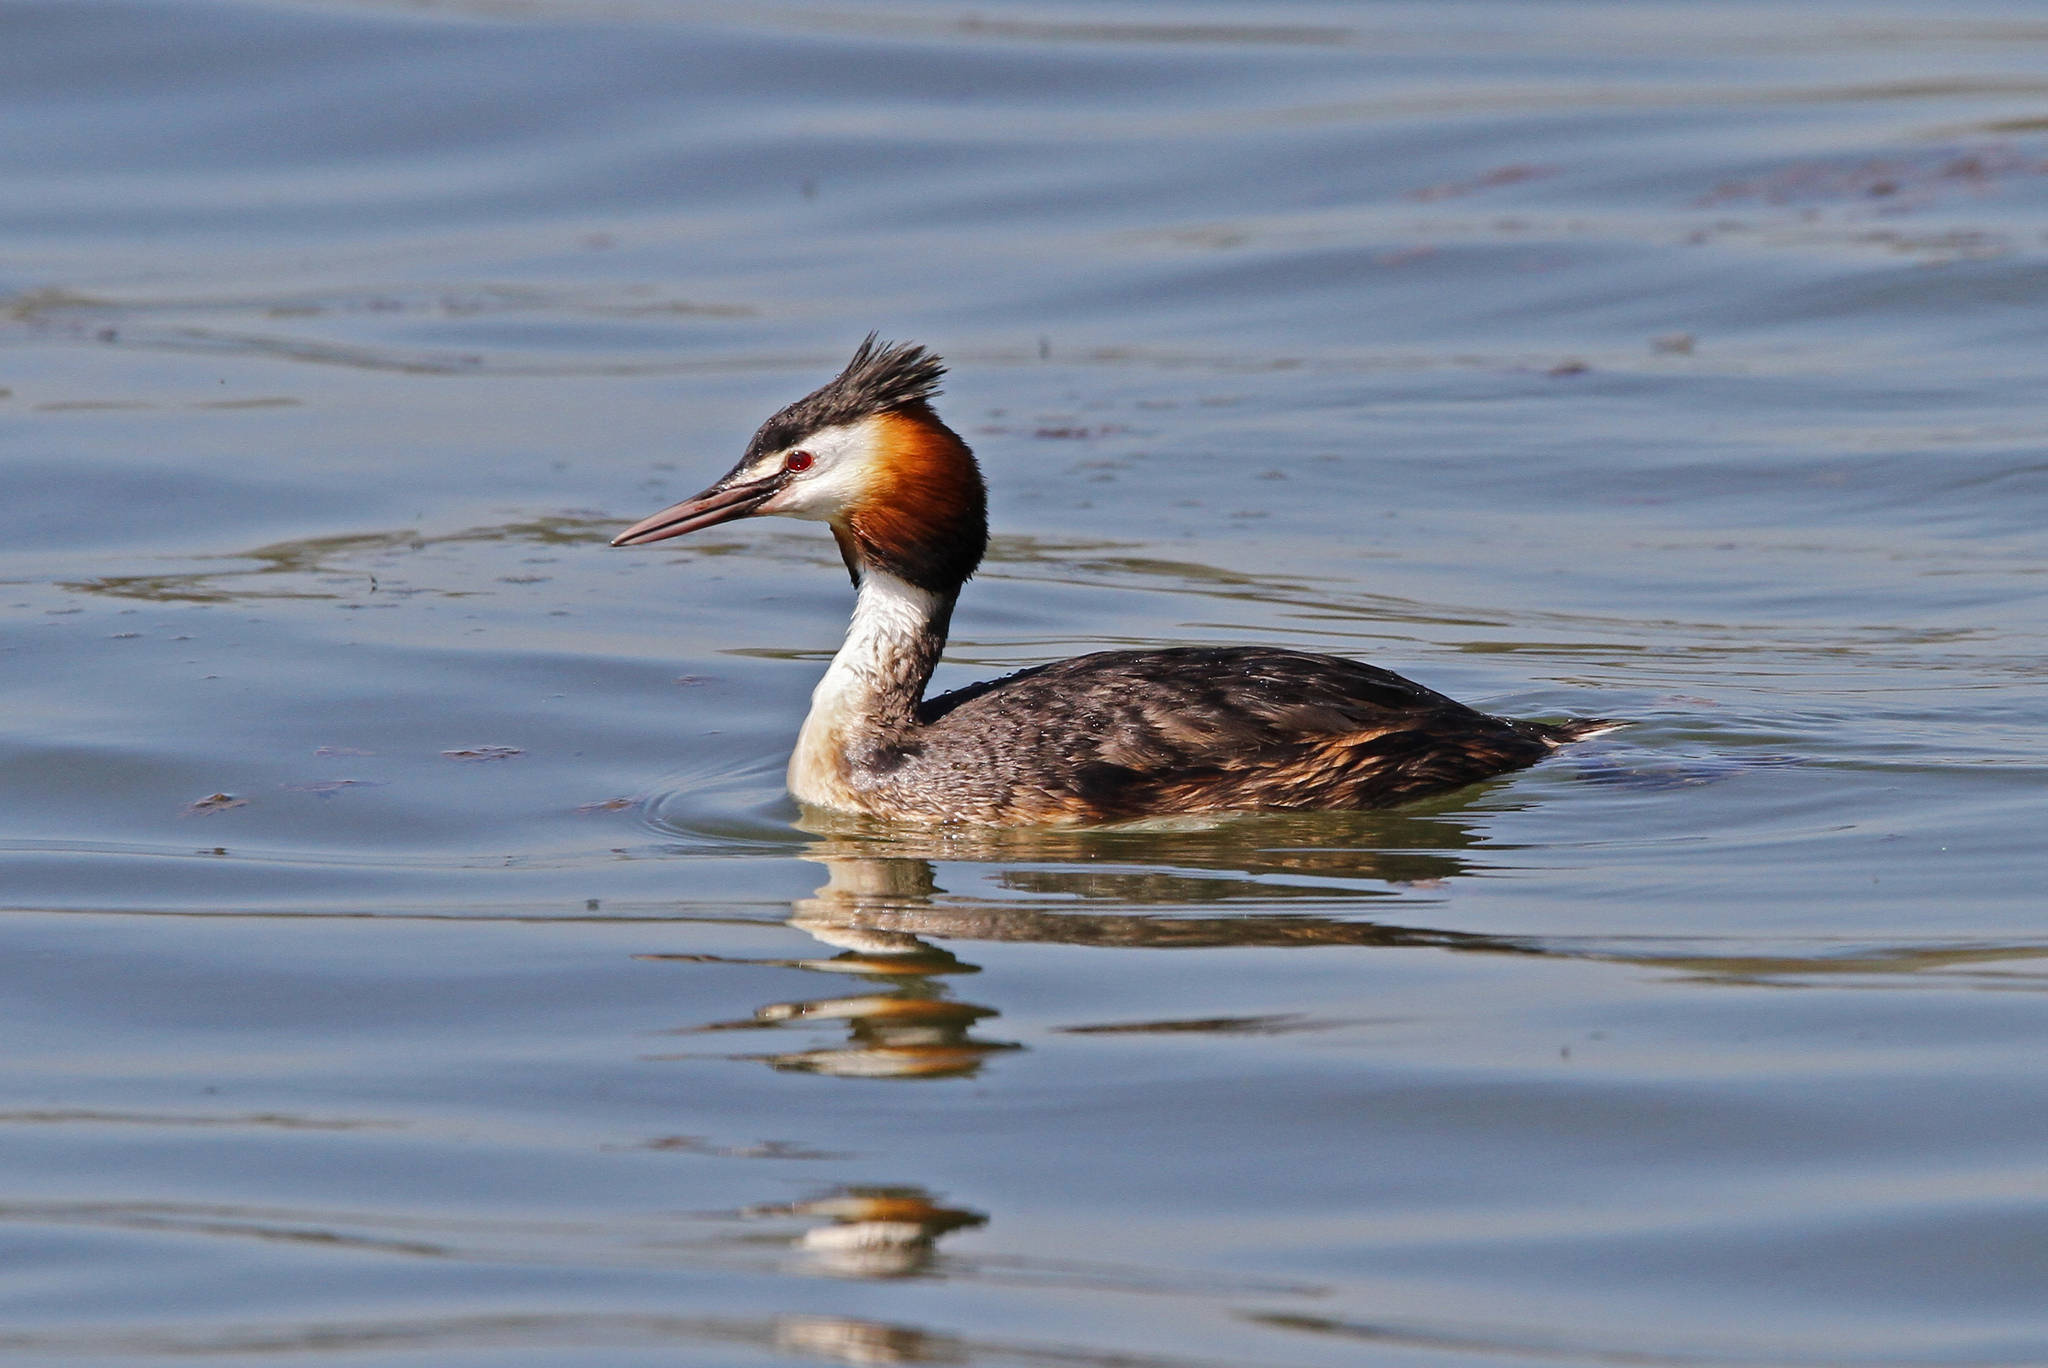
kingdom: Animalia
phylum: Chordata
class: Aves
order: Podicipediformes
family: Podicipedidae
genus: Podiceps
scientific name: Podiceps cristatus
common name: Great crested grebe
